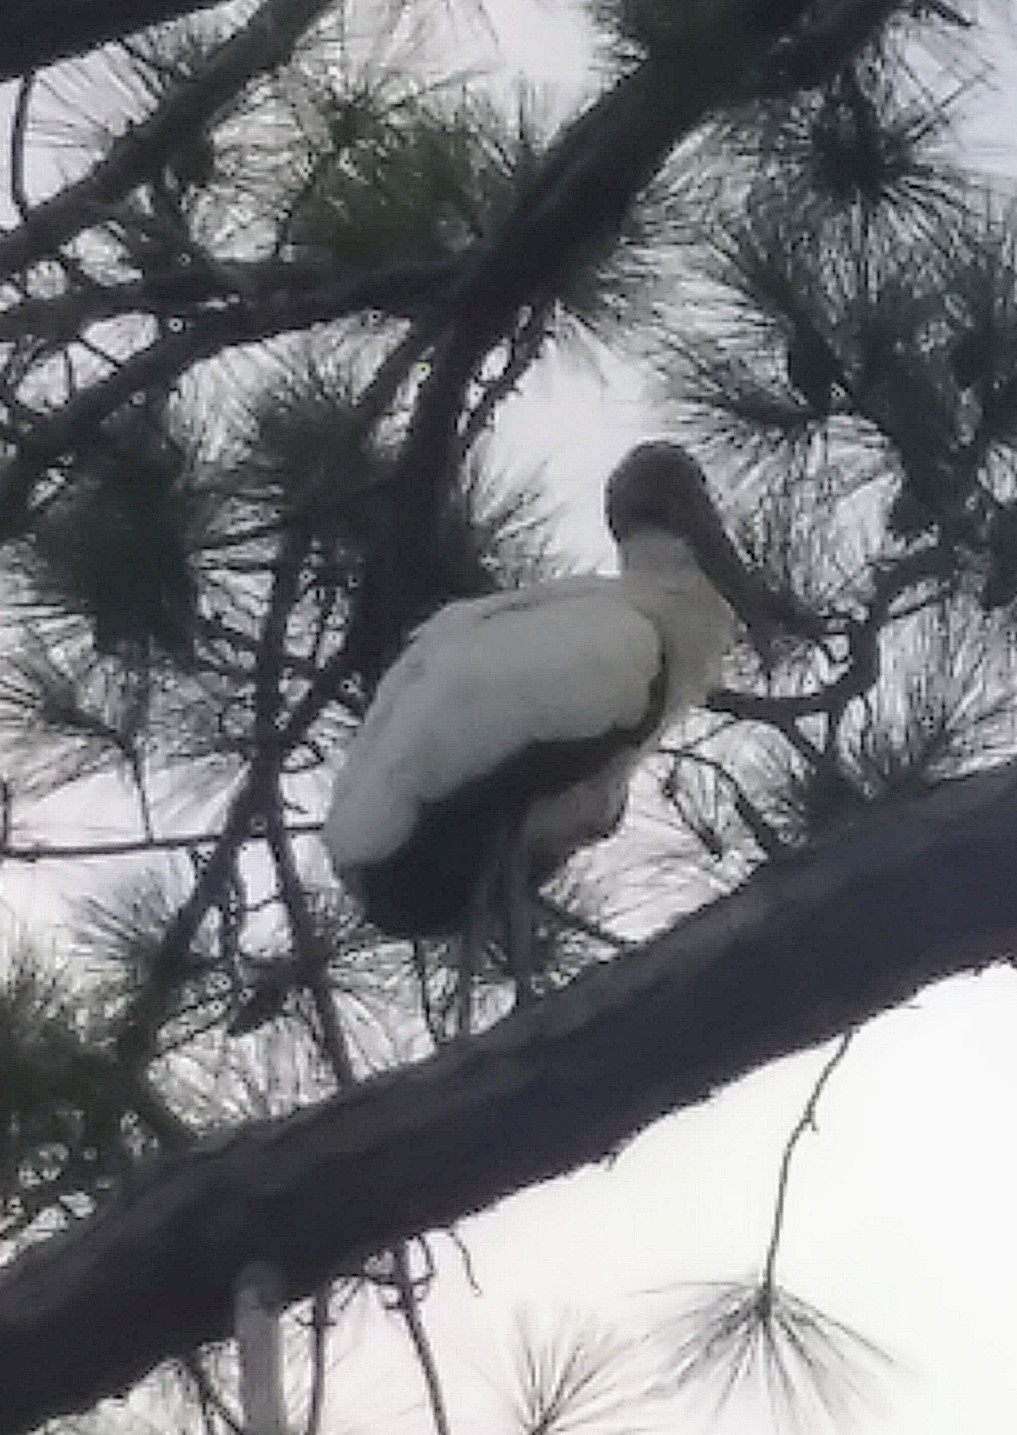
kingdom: Animalia
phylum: Chordata
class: Aves
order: Ciconiiformes
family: Ciconiidae
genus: Mycteria
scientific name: Mycteria americana
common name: Wood stork
